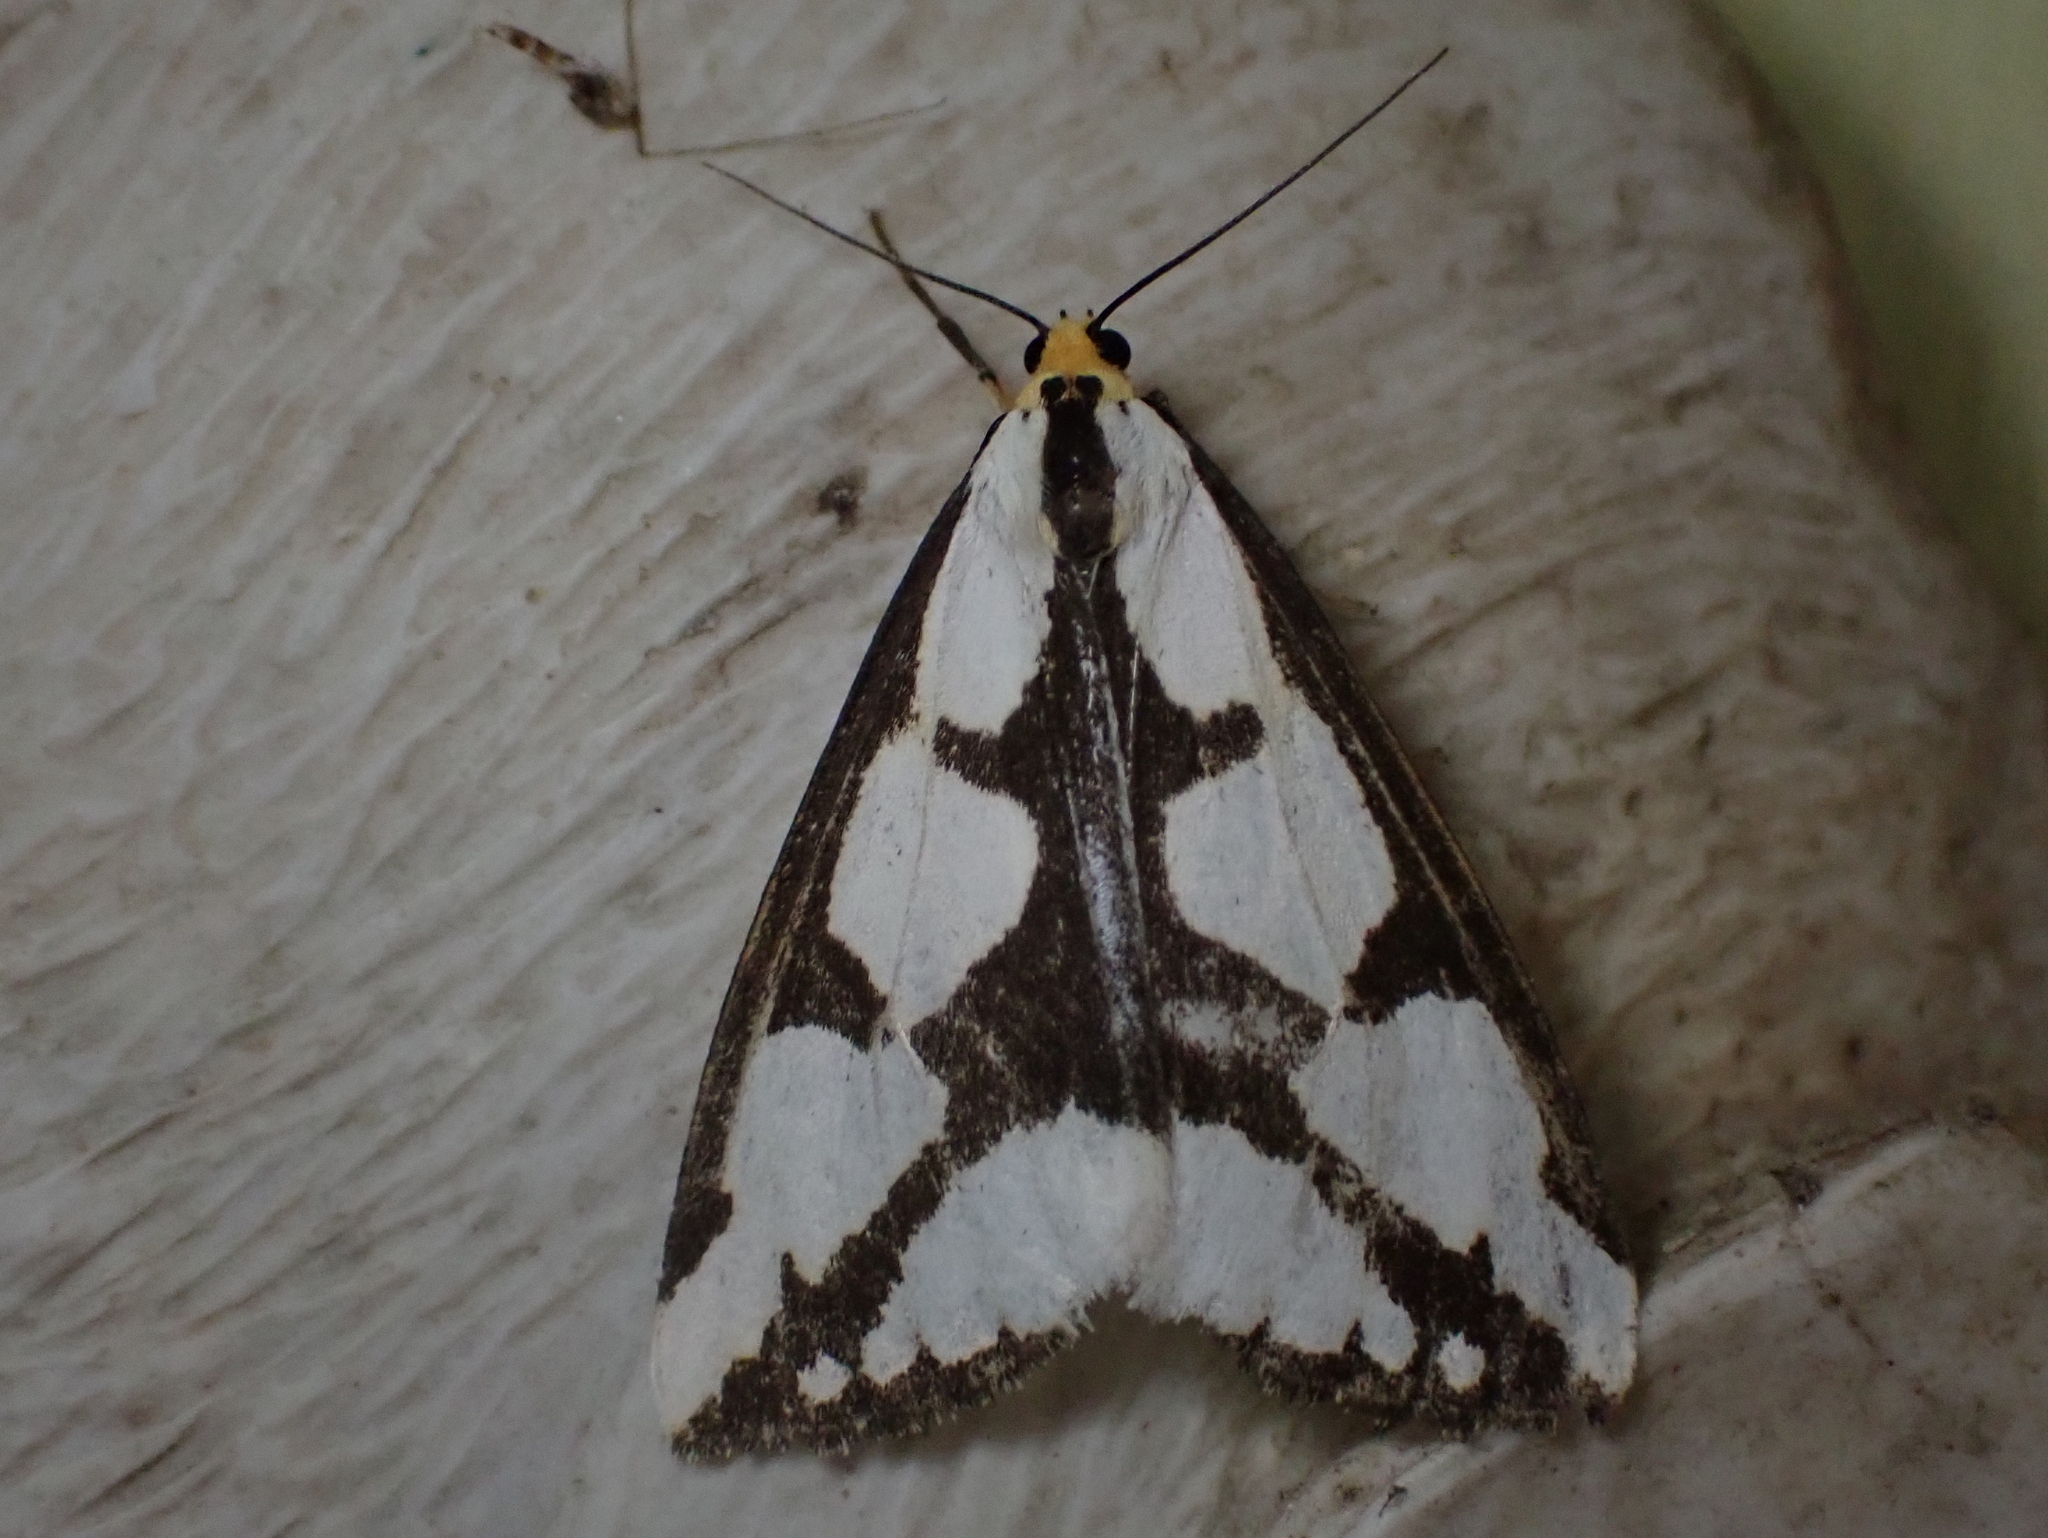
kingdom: Animalia
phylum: Arthropoda
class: Insecta
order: Lepidoptera
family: Erebidae
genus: Haploa
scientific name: Haploa lecontei
